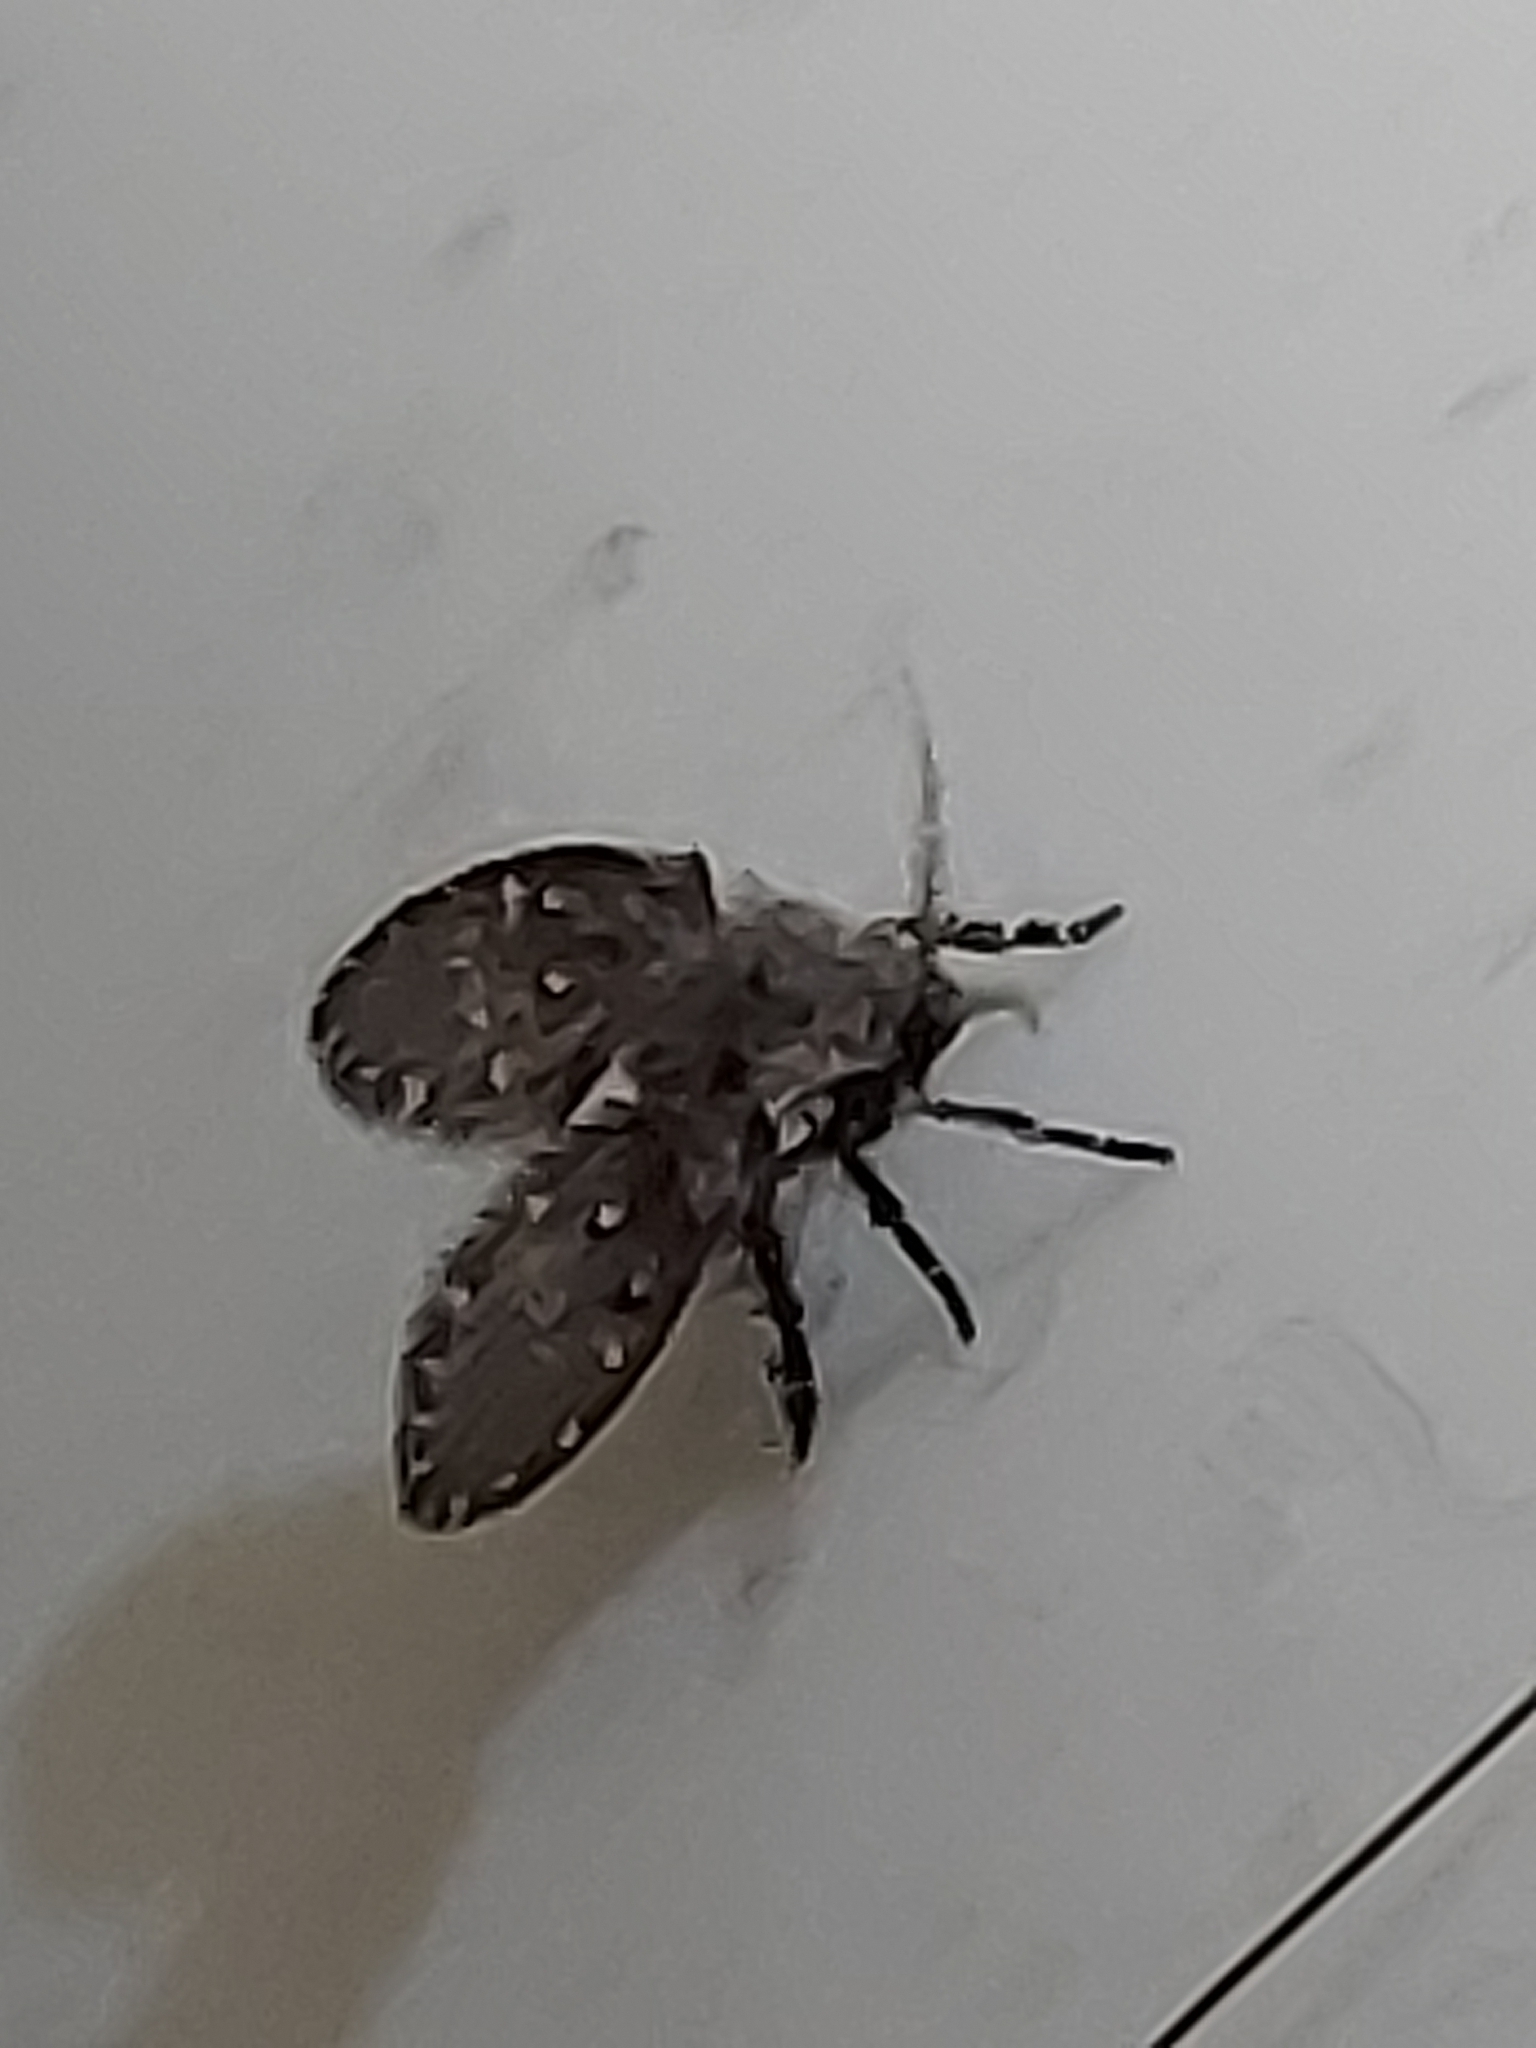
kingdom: Animalia
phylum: Arthropoda
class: Insecta
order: Diptera
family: Psychodidae
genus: Clogmia
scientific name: Clogmia albipunctatus
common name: White-spotted moth fly
